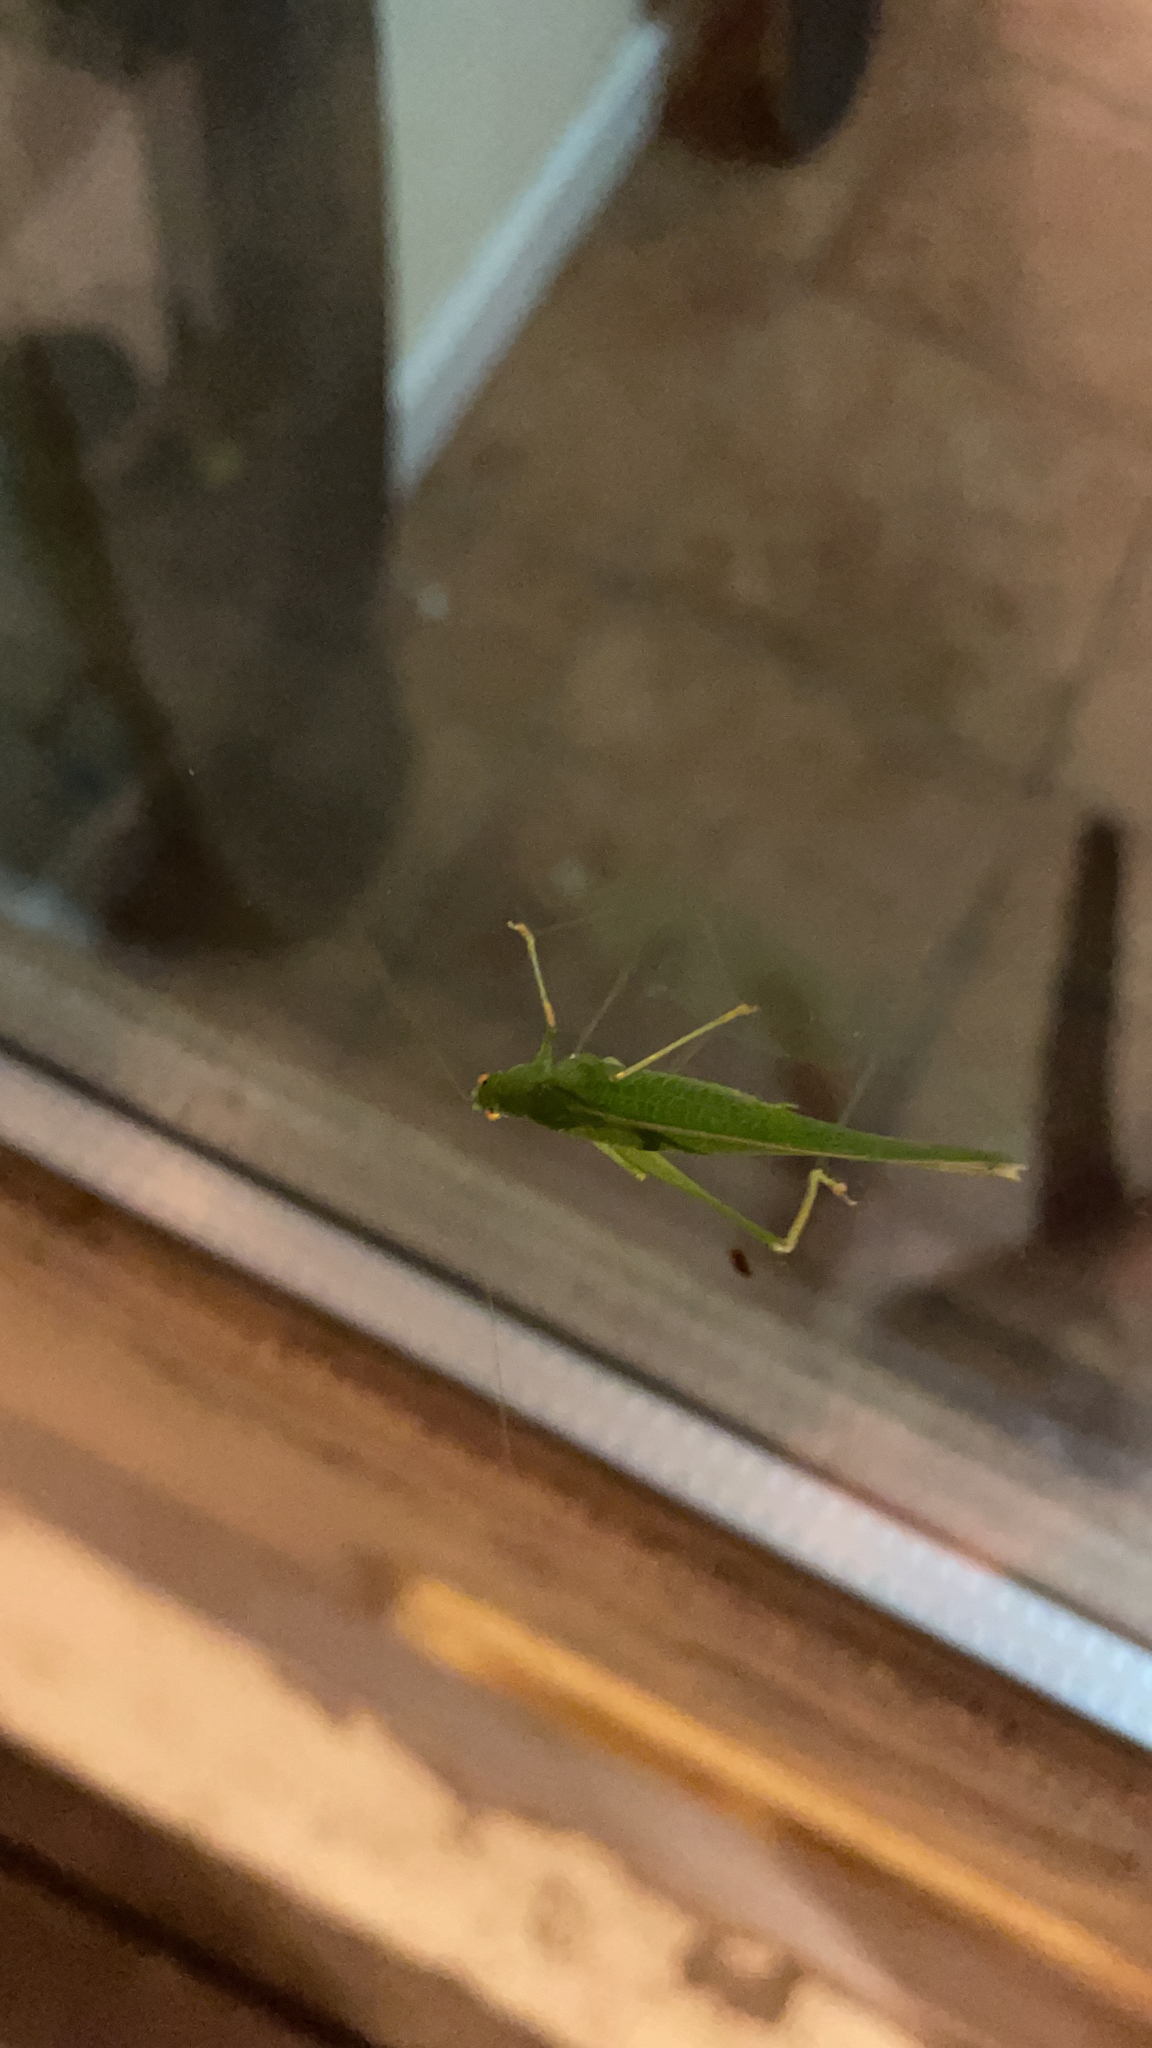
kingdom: Animalia
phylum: Arthropoda
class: Insecta
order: Orthoptera
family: Tettigoniidae
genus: Phaneroptera
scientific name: Phaneroptera nana
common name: Southern sickle bush-cricket
